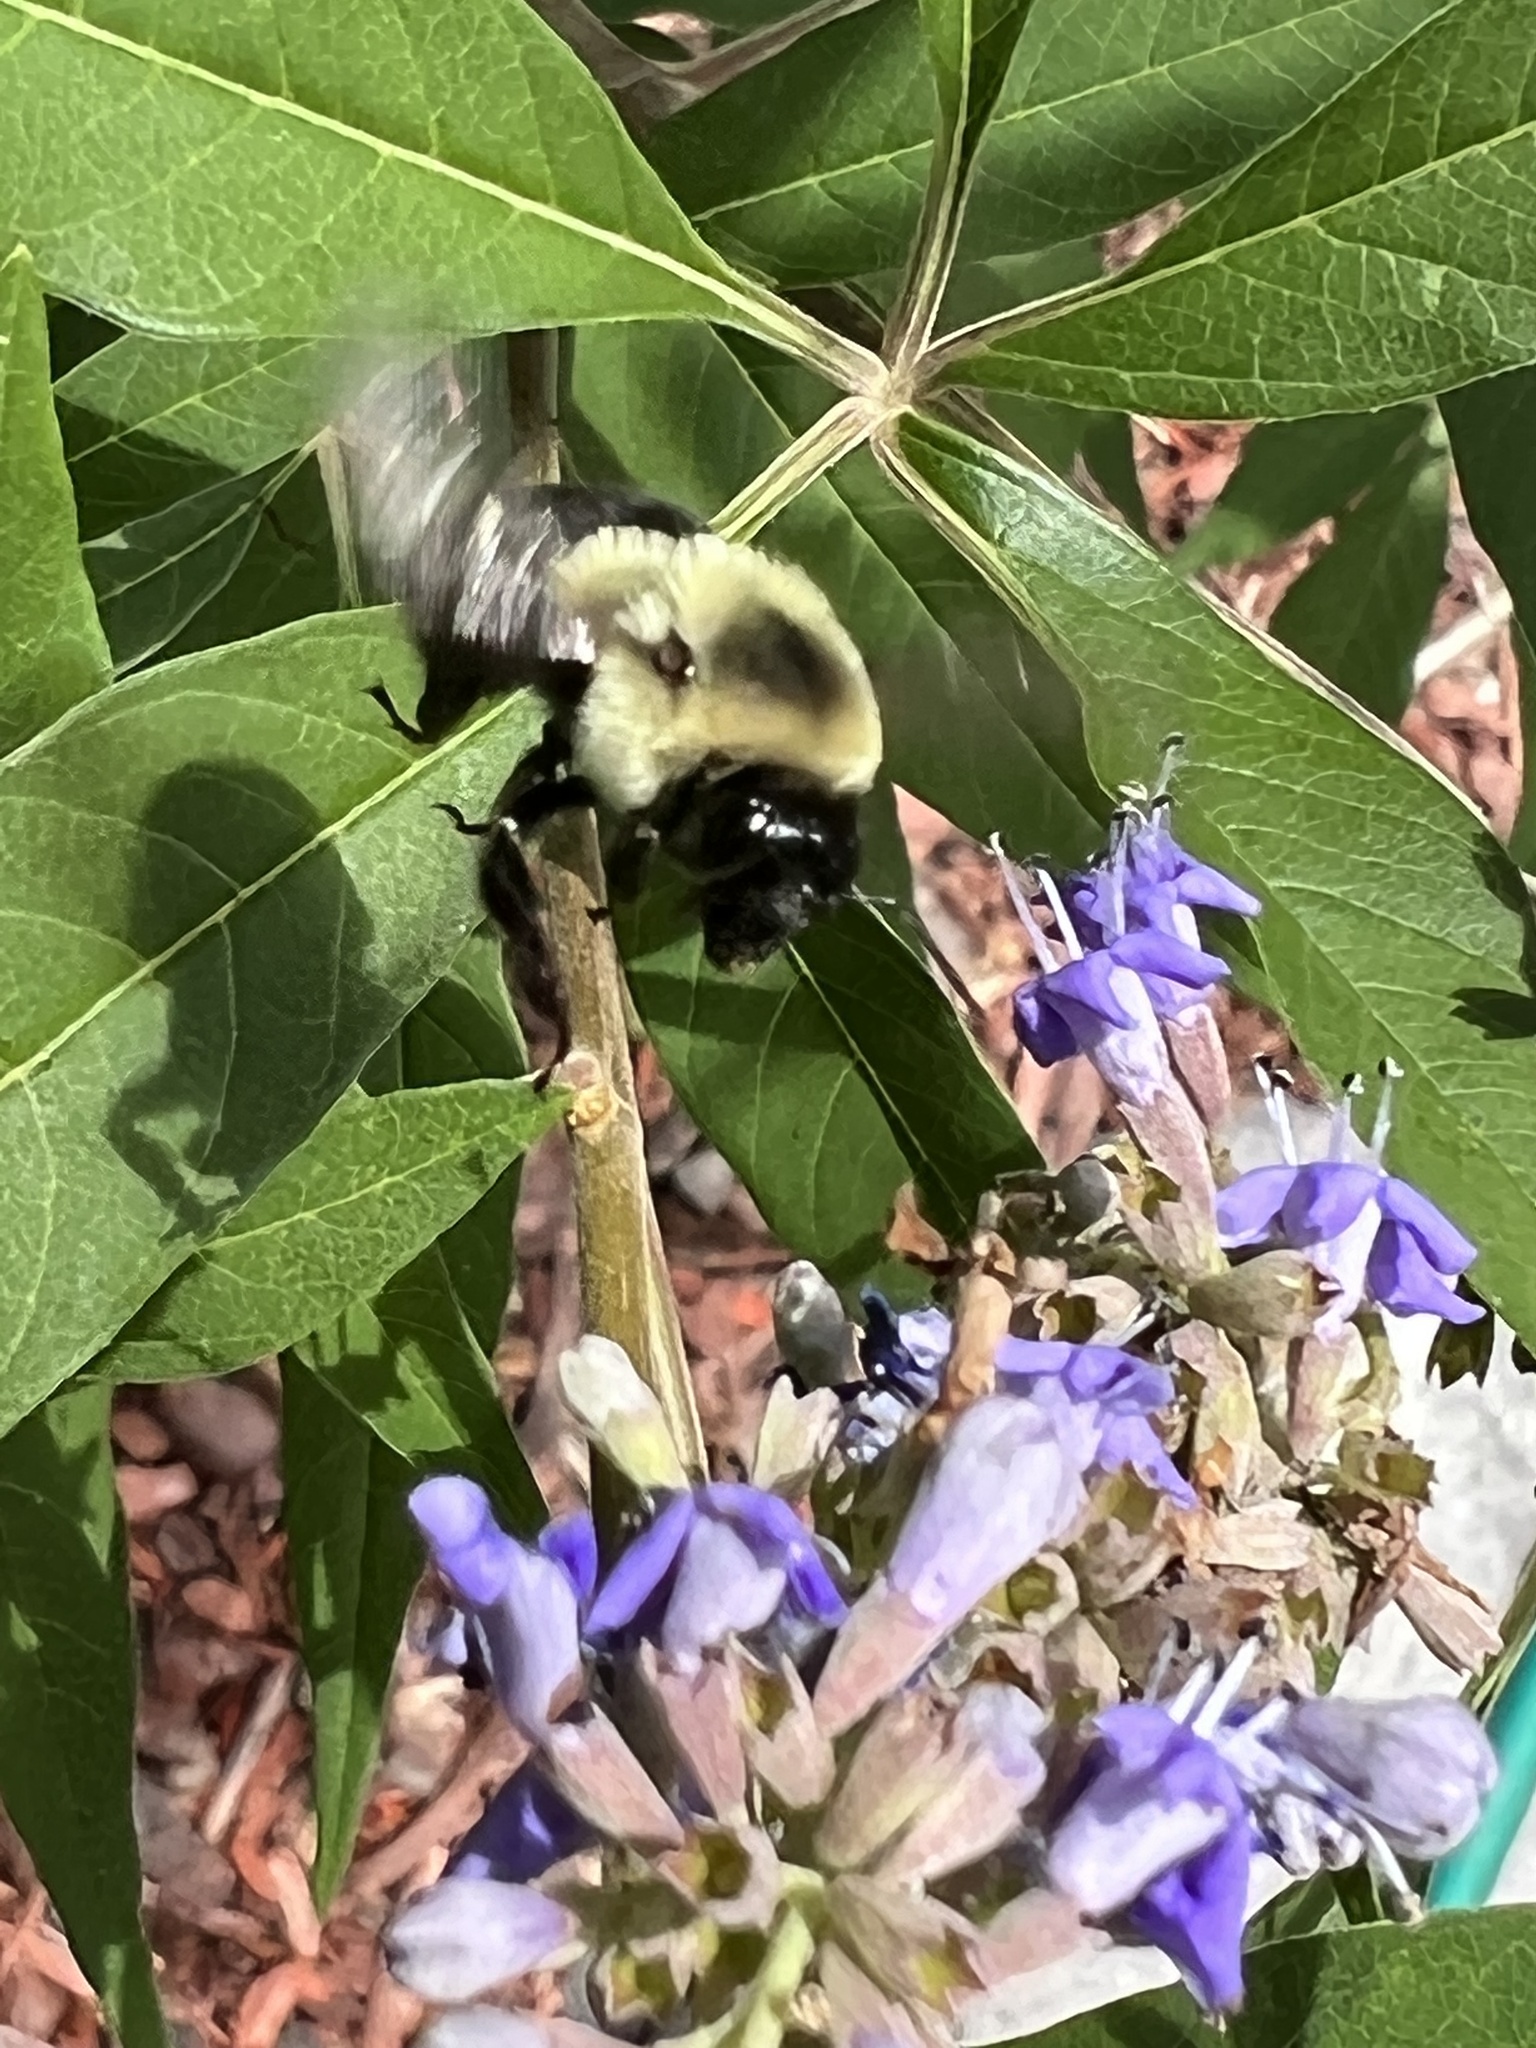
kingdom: Animalia
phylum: Arthropoda
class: Insecta
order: Hymenoptera
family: Apidae
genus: Bombus
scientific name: Bombus impatiens
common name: Common eastern bumble bee
